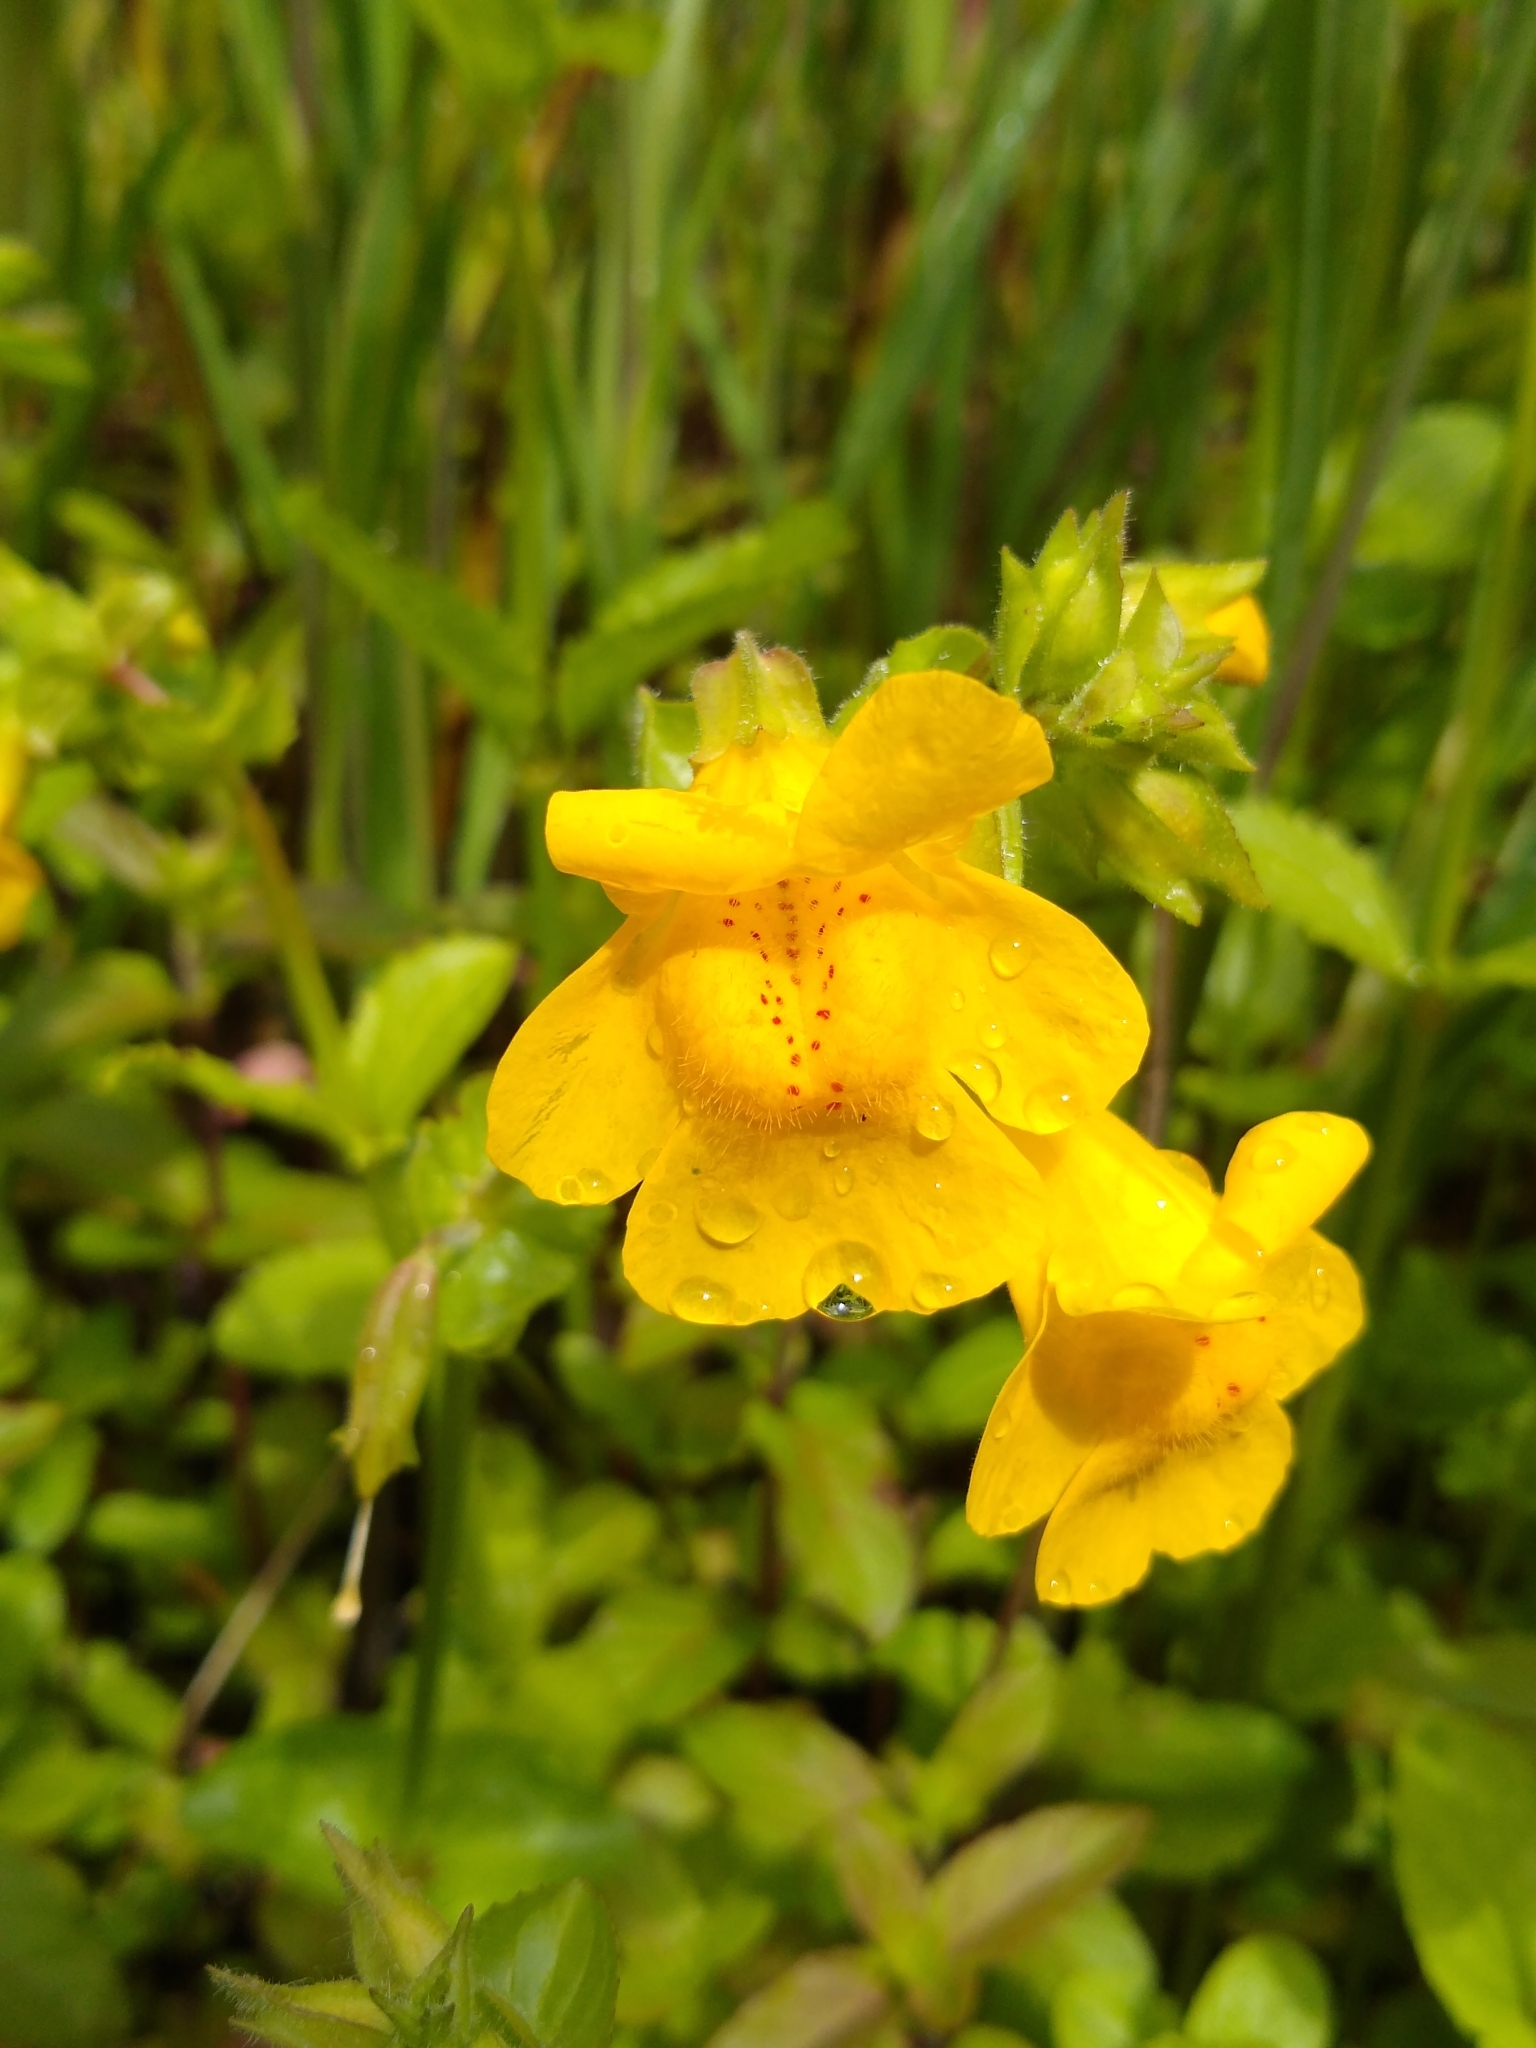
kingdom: Plantae
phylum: Tracheophyta
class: Magnoliopsida
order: Lamiales
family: Phrymaceae
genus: Erythranthe
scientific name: Erythranthe guttata
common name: Monkeyflower
